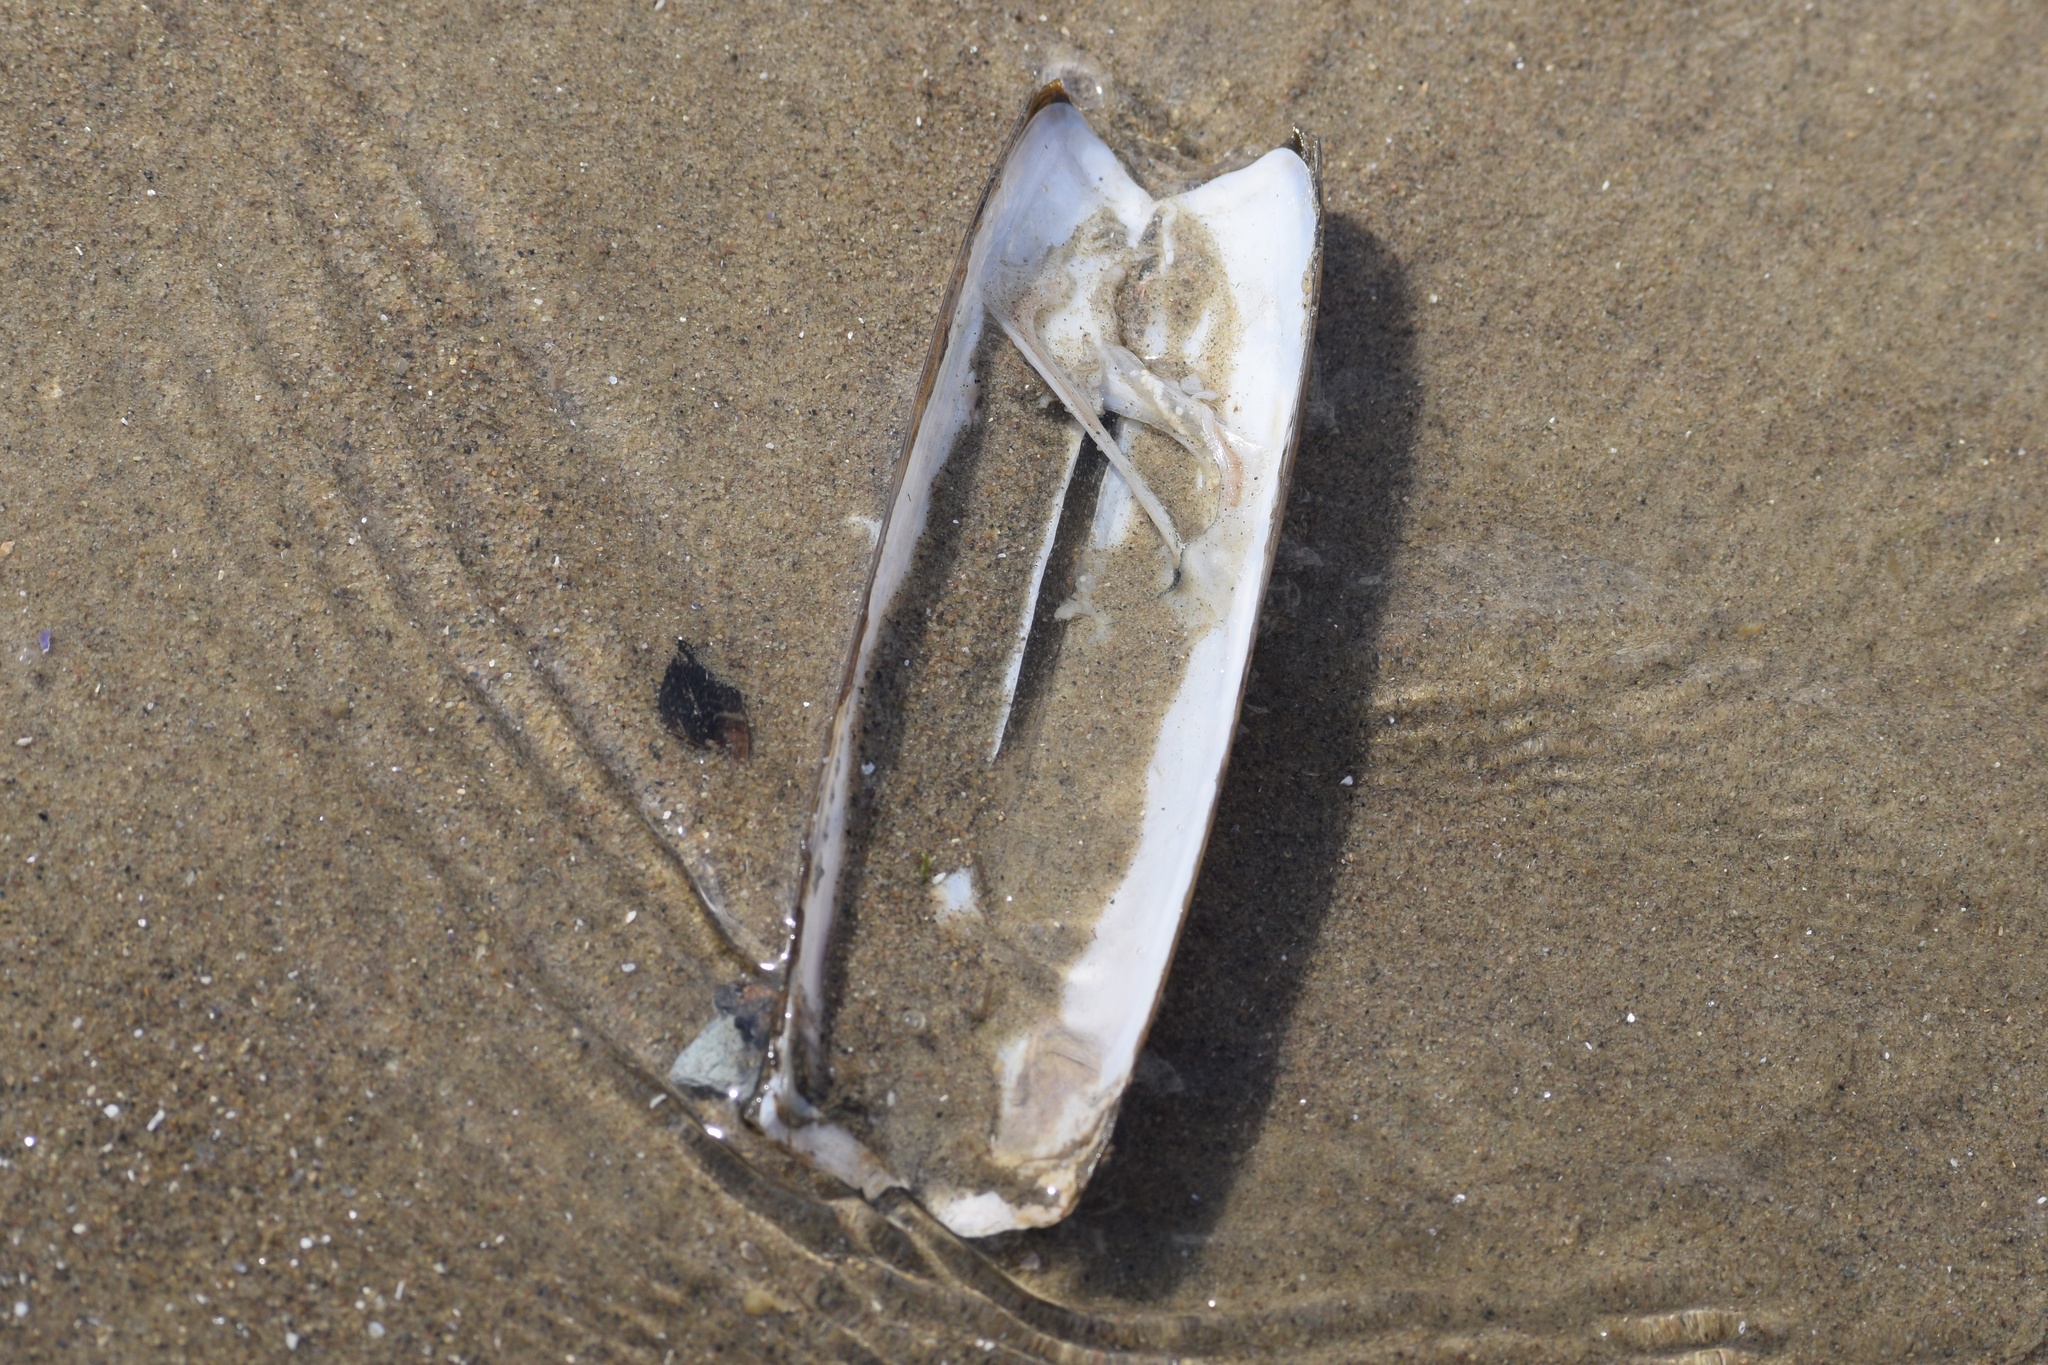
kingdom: Animalia
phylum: Mollusca
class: Bivalvia
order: Adapedonta
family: Pharidae
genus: Ensis
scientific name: Ensis leei
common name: American jack knife clam
